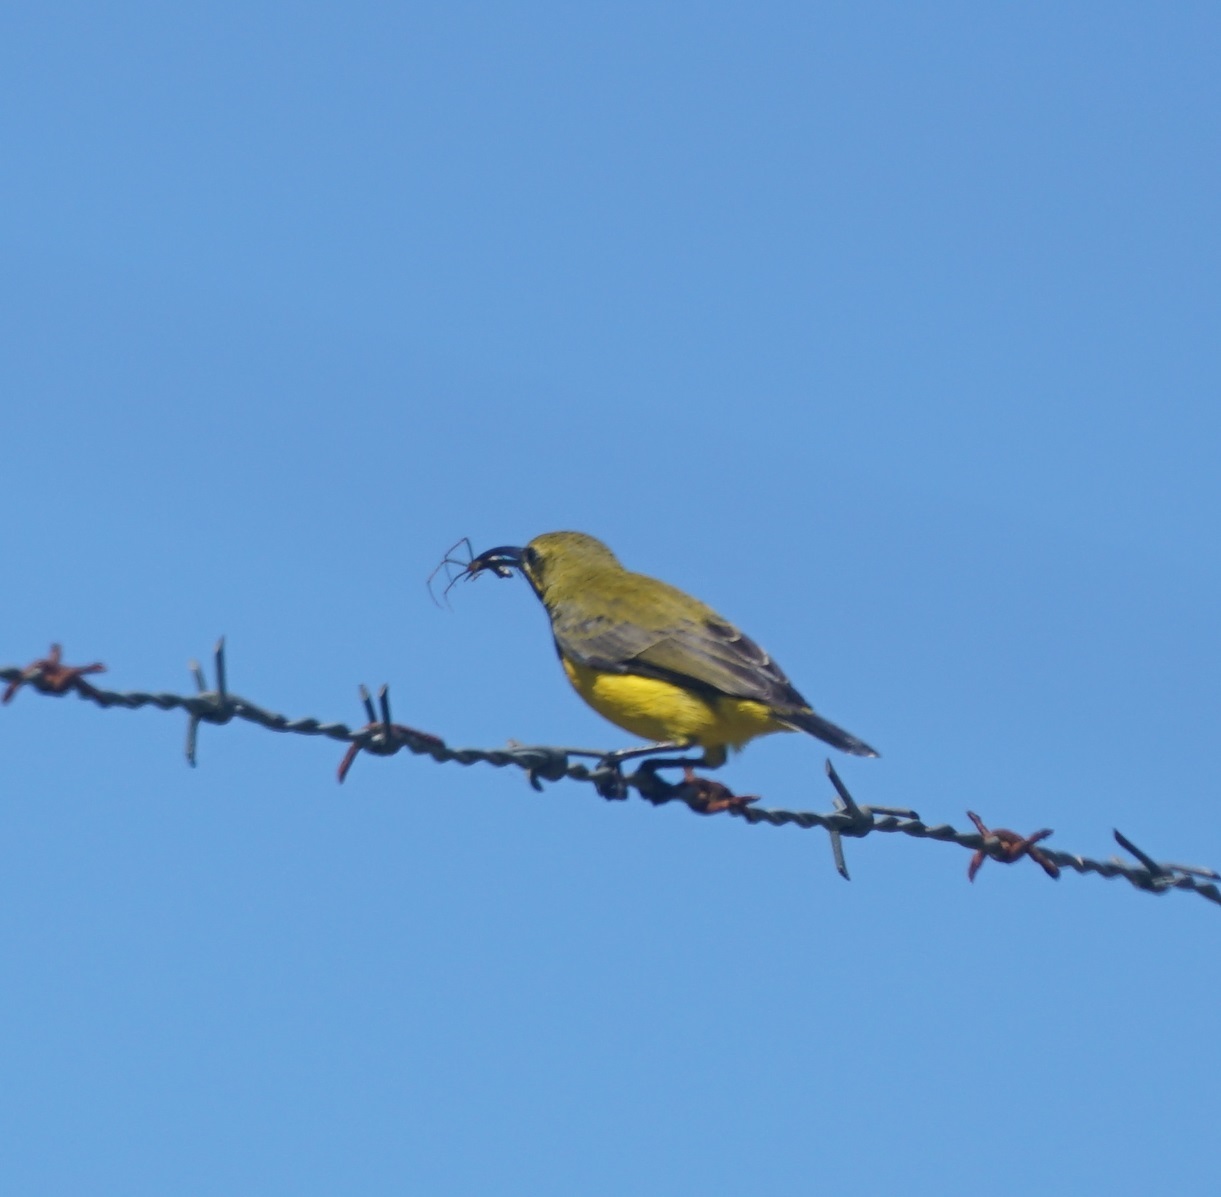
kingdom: Animalia
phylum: Chordata
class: Aves
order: Passeriformes
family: Nectariniidae
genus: Cinnyris
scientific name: Cinnyris
